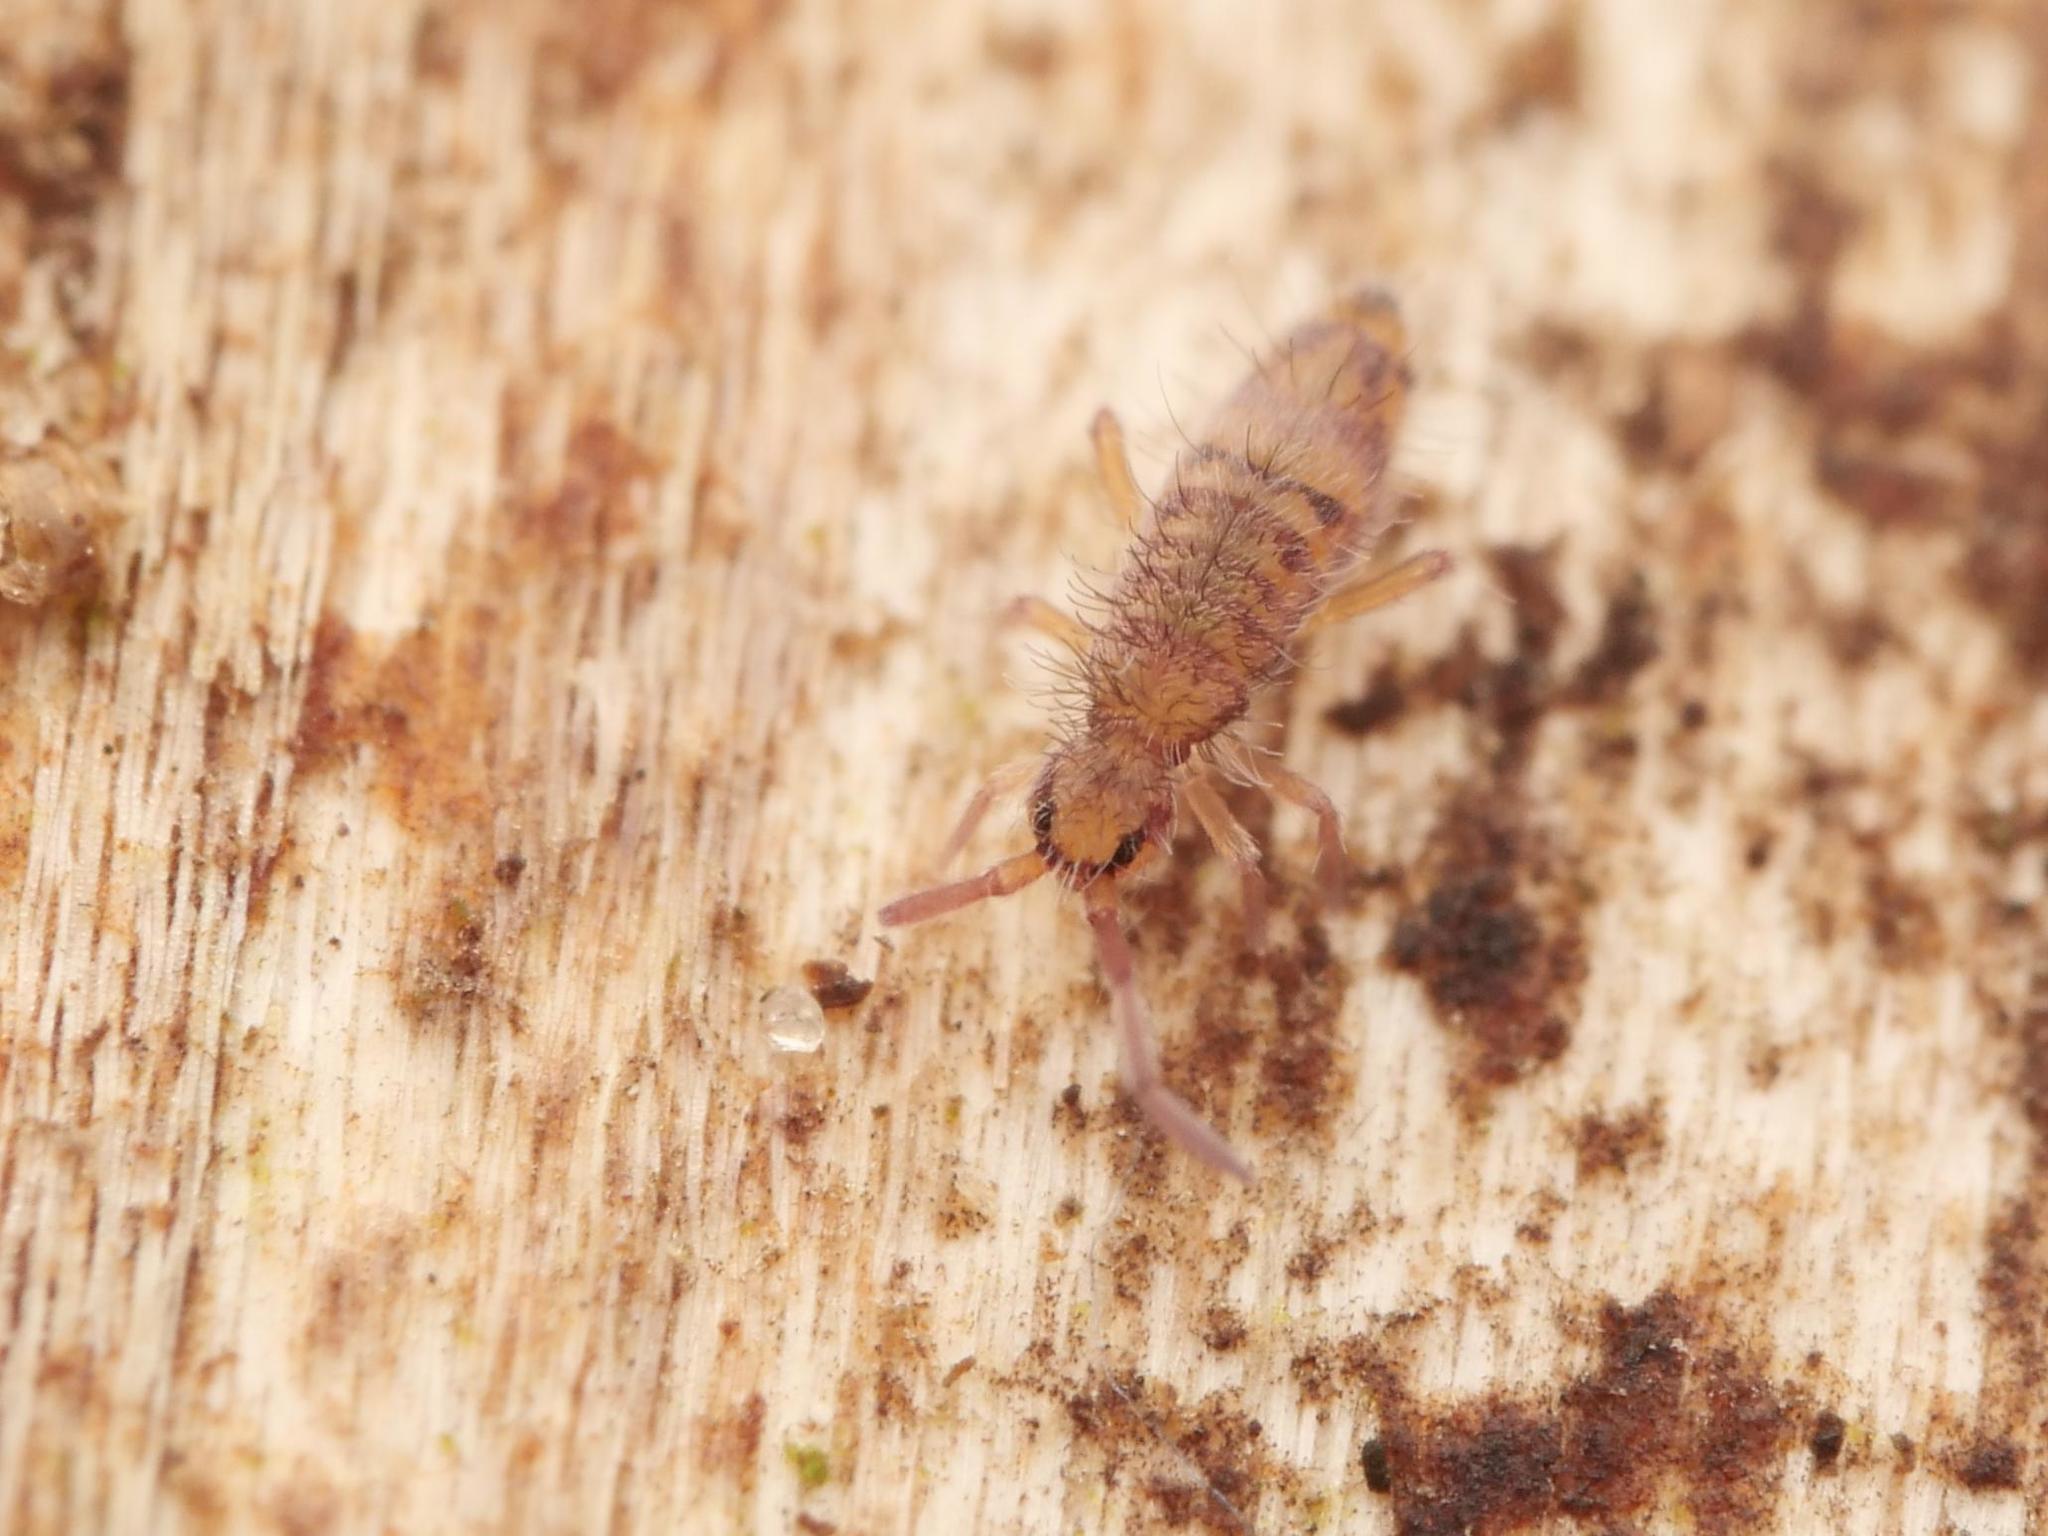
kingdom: Animalia
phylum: Arthropoda
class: Collembola
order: Entomobryomorpha
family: Entomobryidae
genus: Entomobrya
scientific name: Entomobrya multifasciata
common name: Springtail
